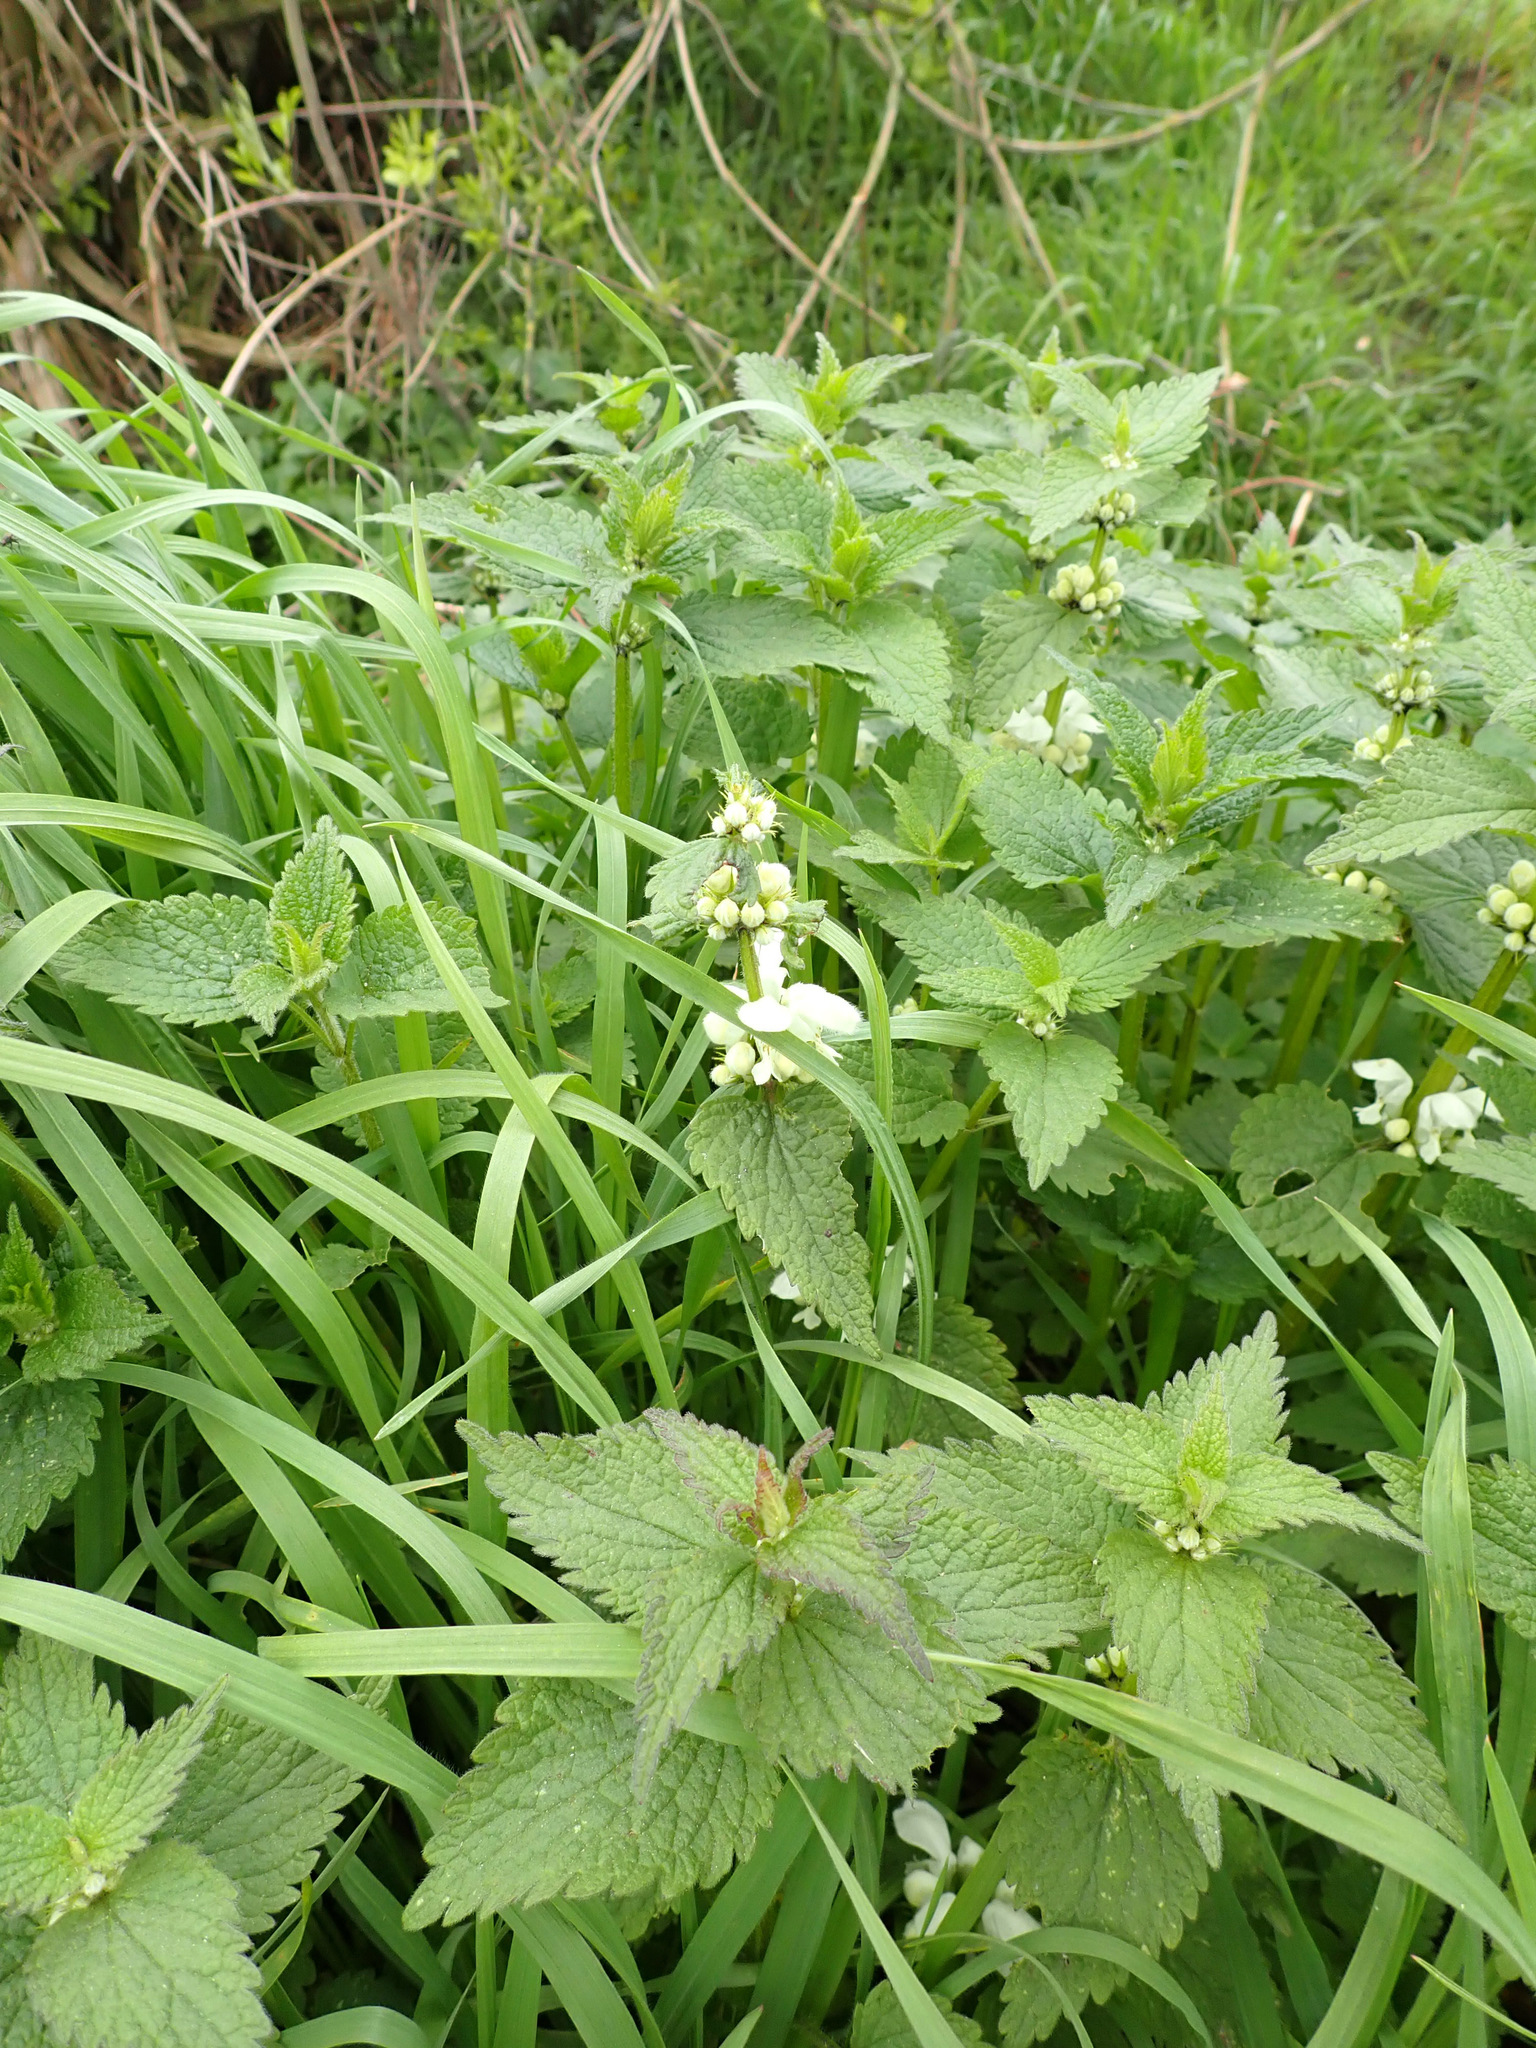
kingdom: Plantae
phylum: Tracheophyta
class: Magnoliopsida
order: Lamiales
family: Lamiaceae
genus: Lamium
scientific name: Lamium album
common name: White dead-nettle
